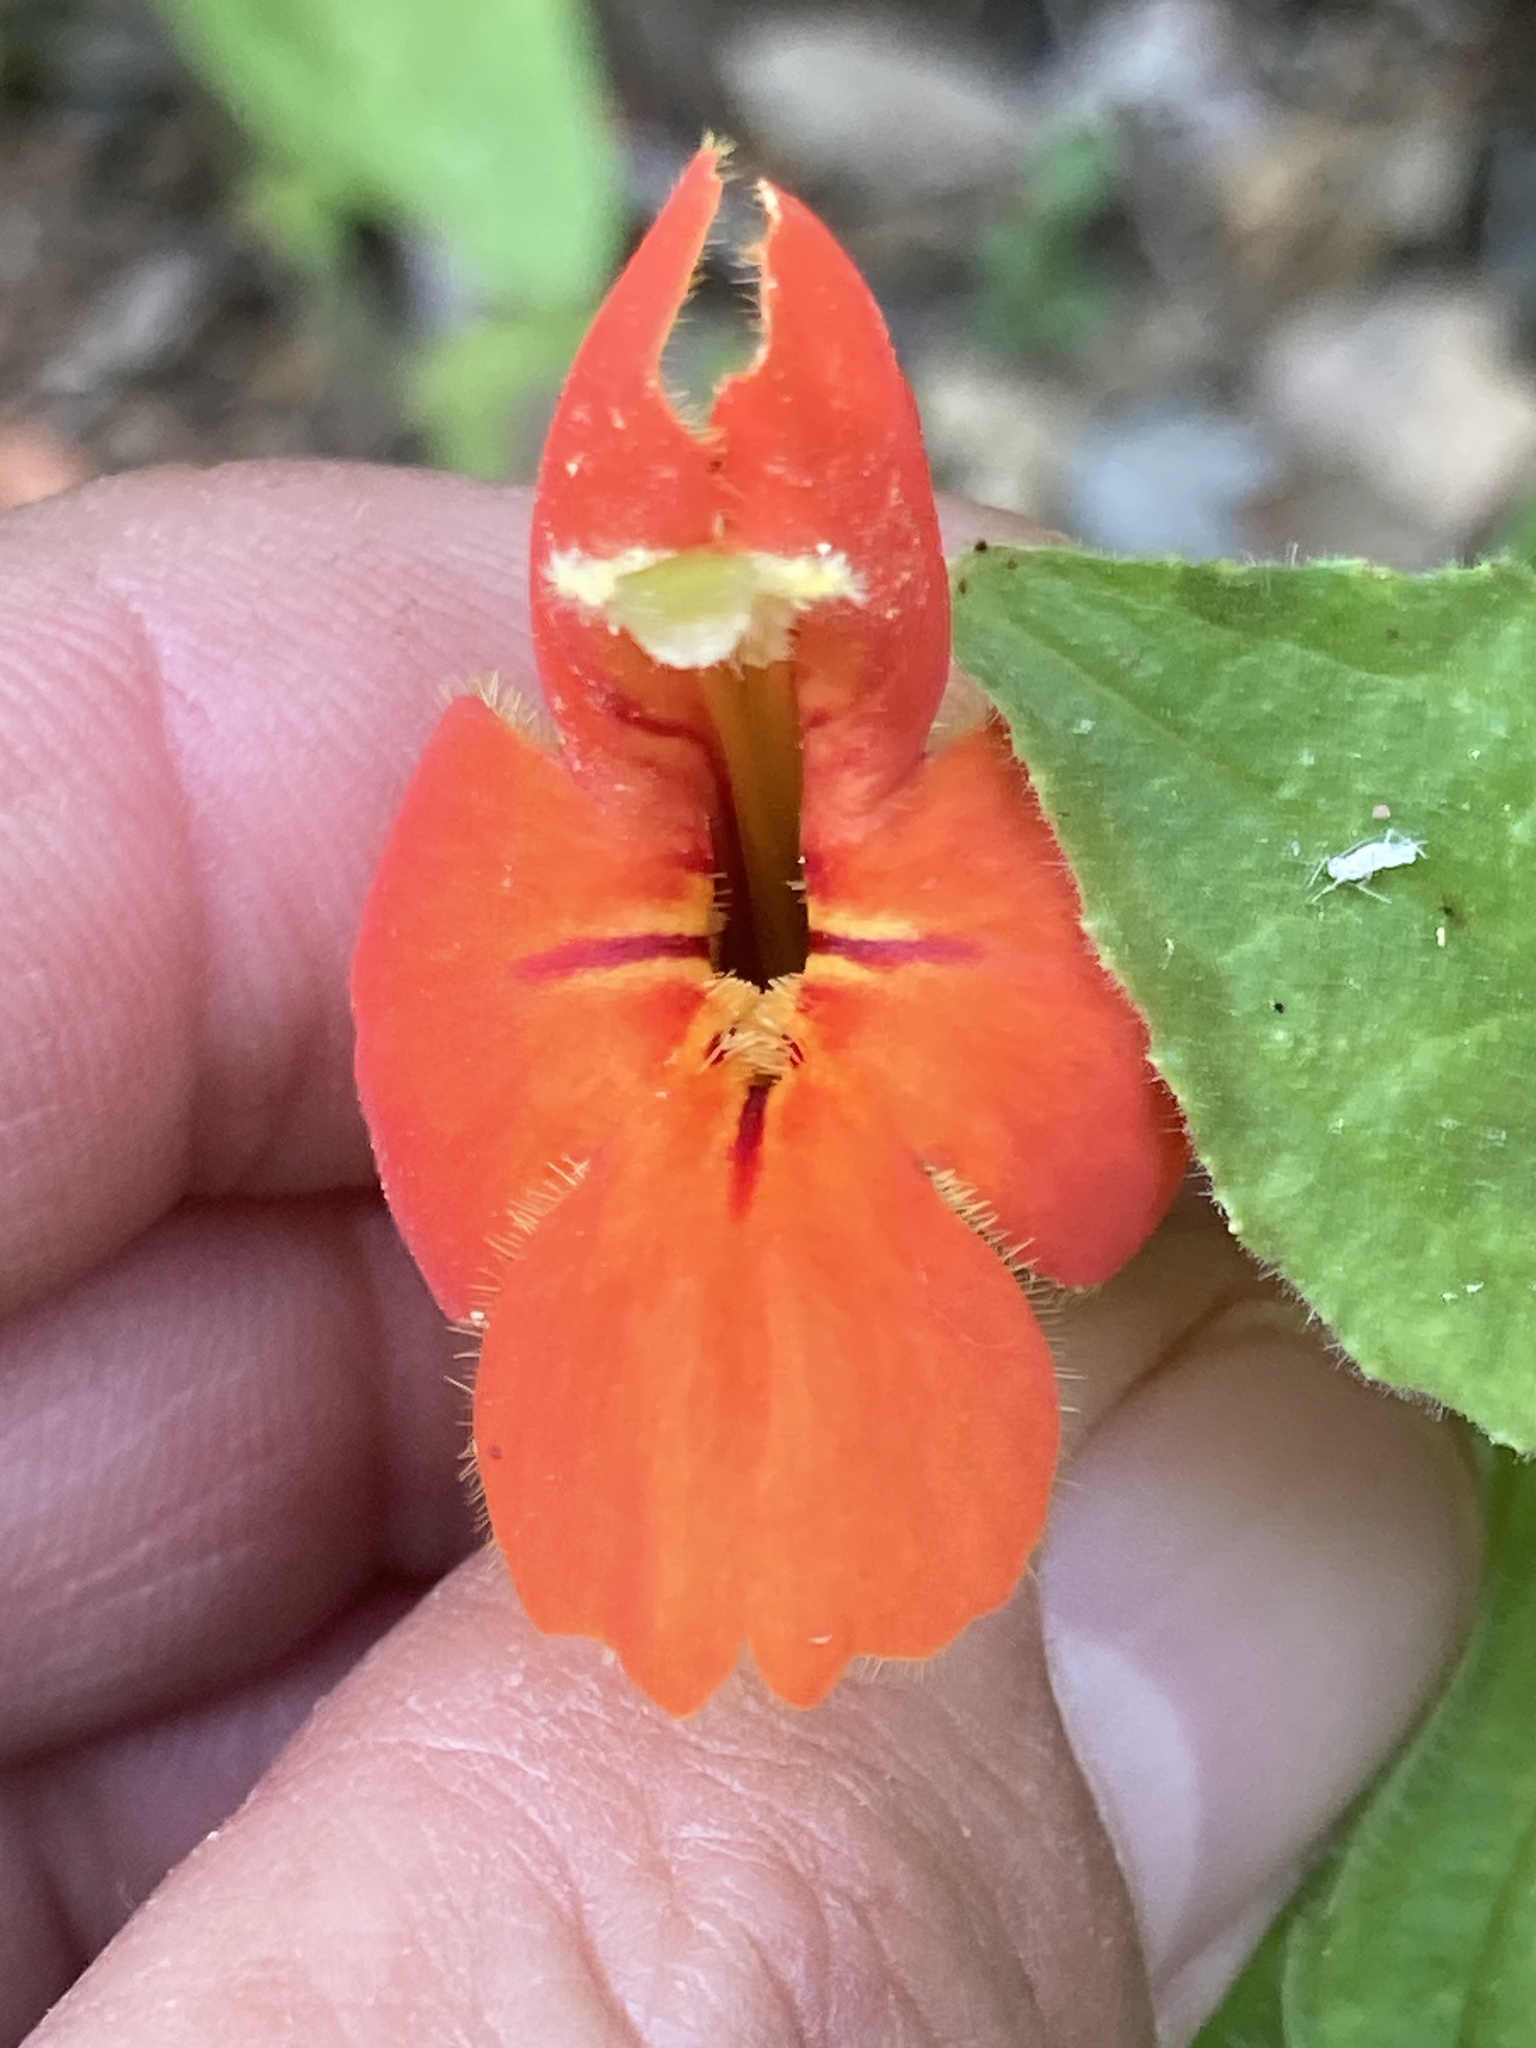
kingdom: Plantae
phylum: Tracheophyta
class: Magnoliopsida
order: Lamiales
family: Phrymaceae
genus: Erythranthe
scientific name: Erythranthe cardinalis
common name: Scarlet monkey-flower
